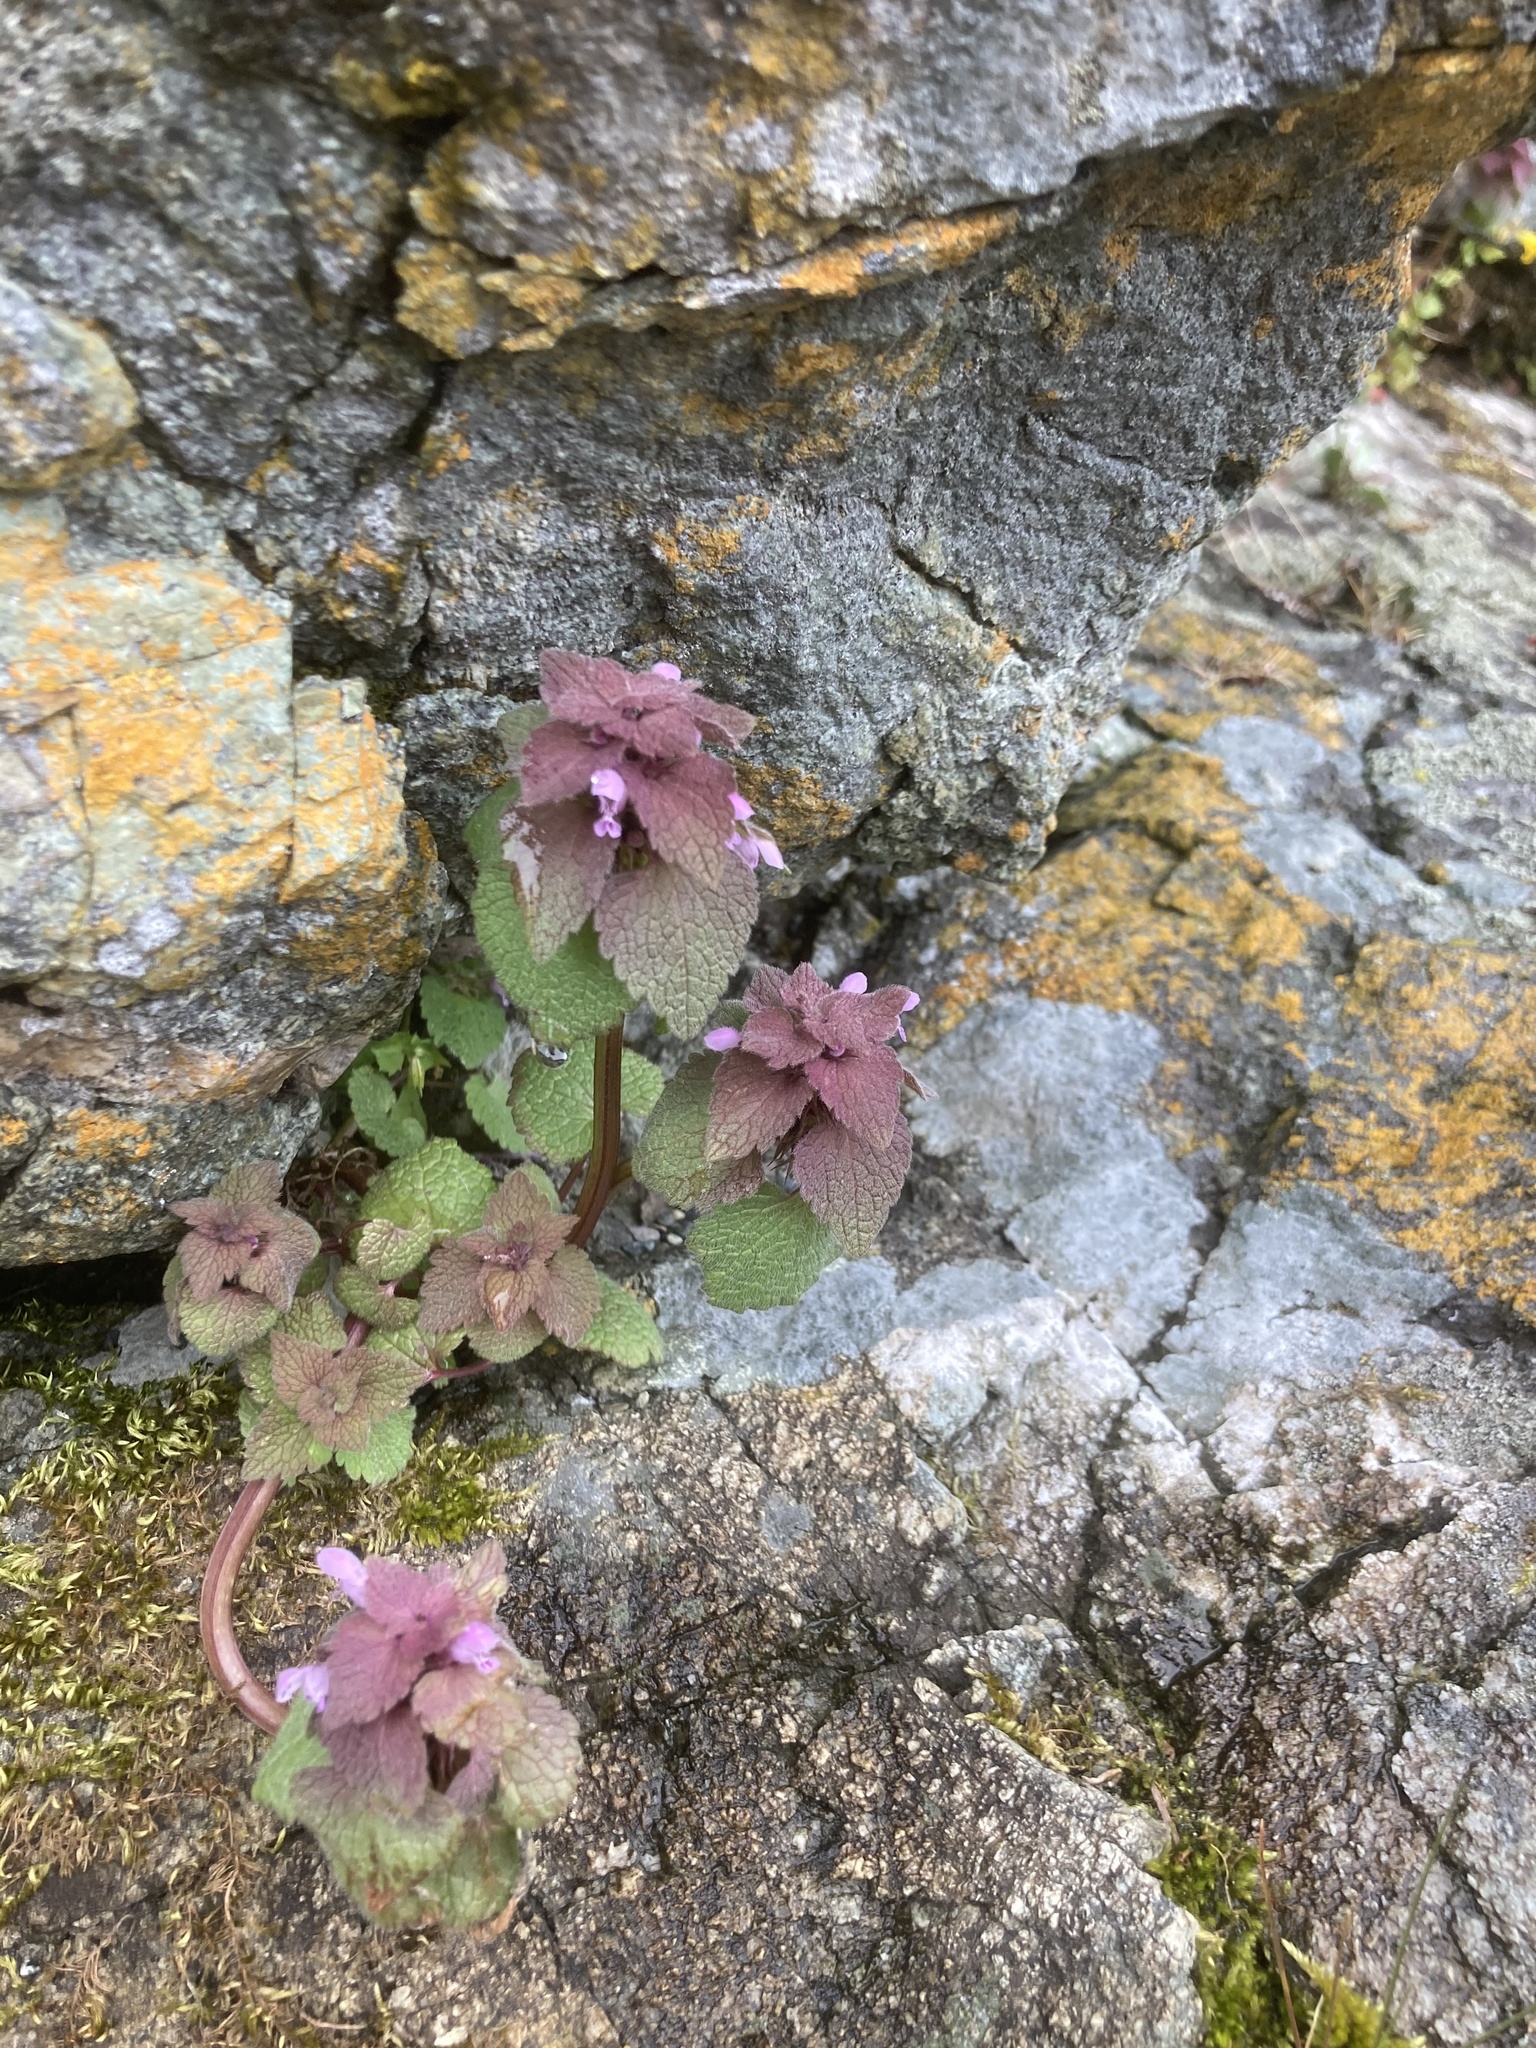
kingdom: Plantae
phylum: Tracheophyta
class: Magnoliopsida
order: Lamiales
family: Lamiaceae
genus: Lamium
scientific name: Lamium purpureum
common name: Red dead-nettle
